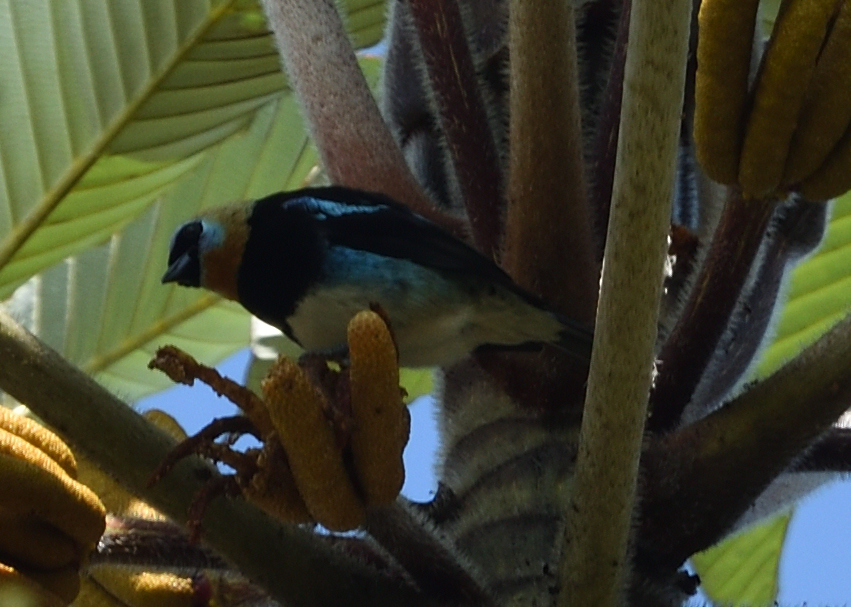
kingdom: Animalia
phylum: Chordata
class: Aves
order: Passeriformes
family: Thraupidae
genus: Stilpnia
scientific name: Stilpnia larvata
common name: Golden-hooded tanager
